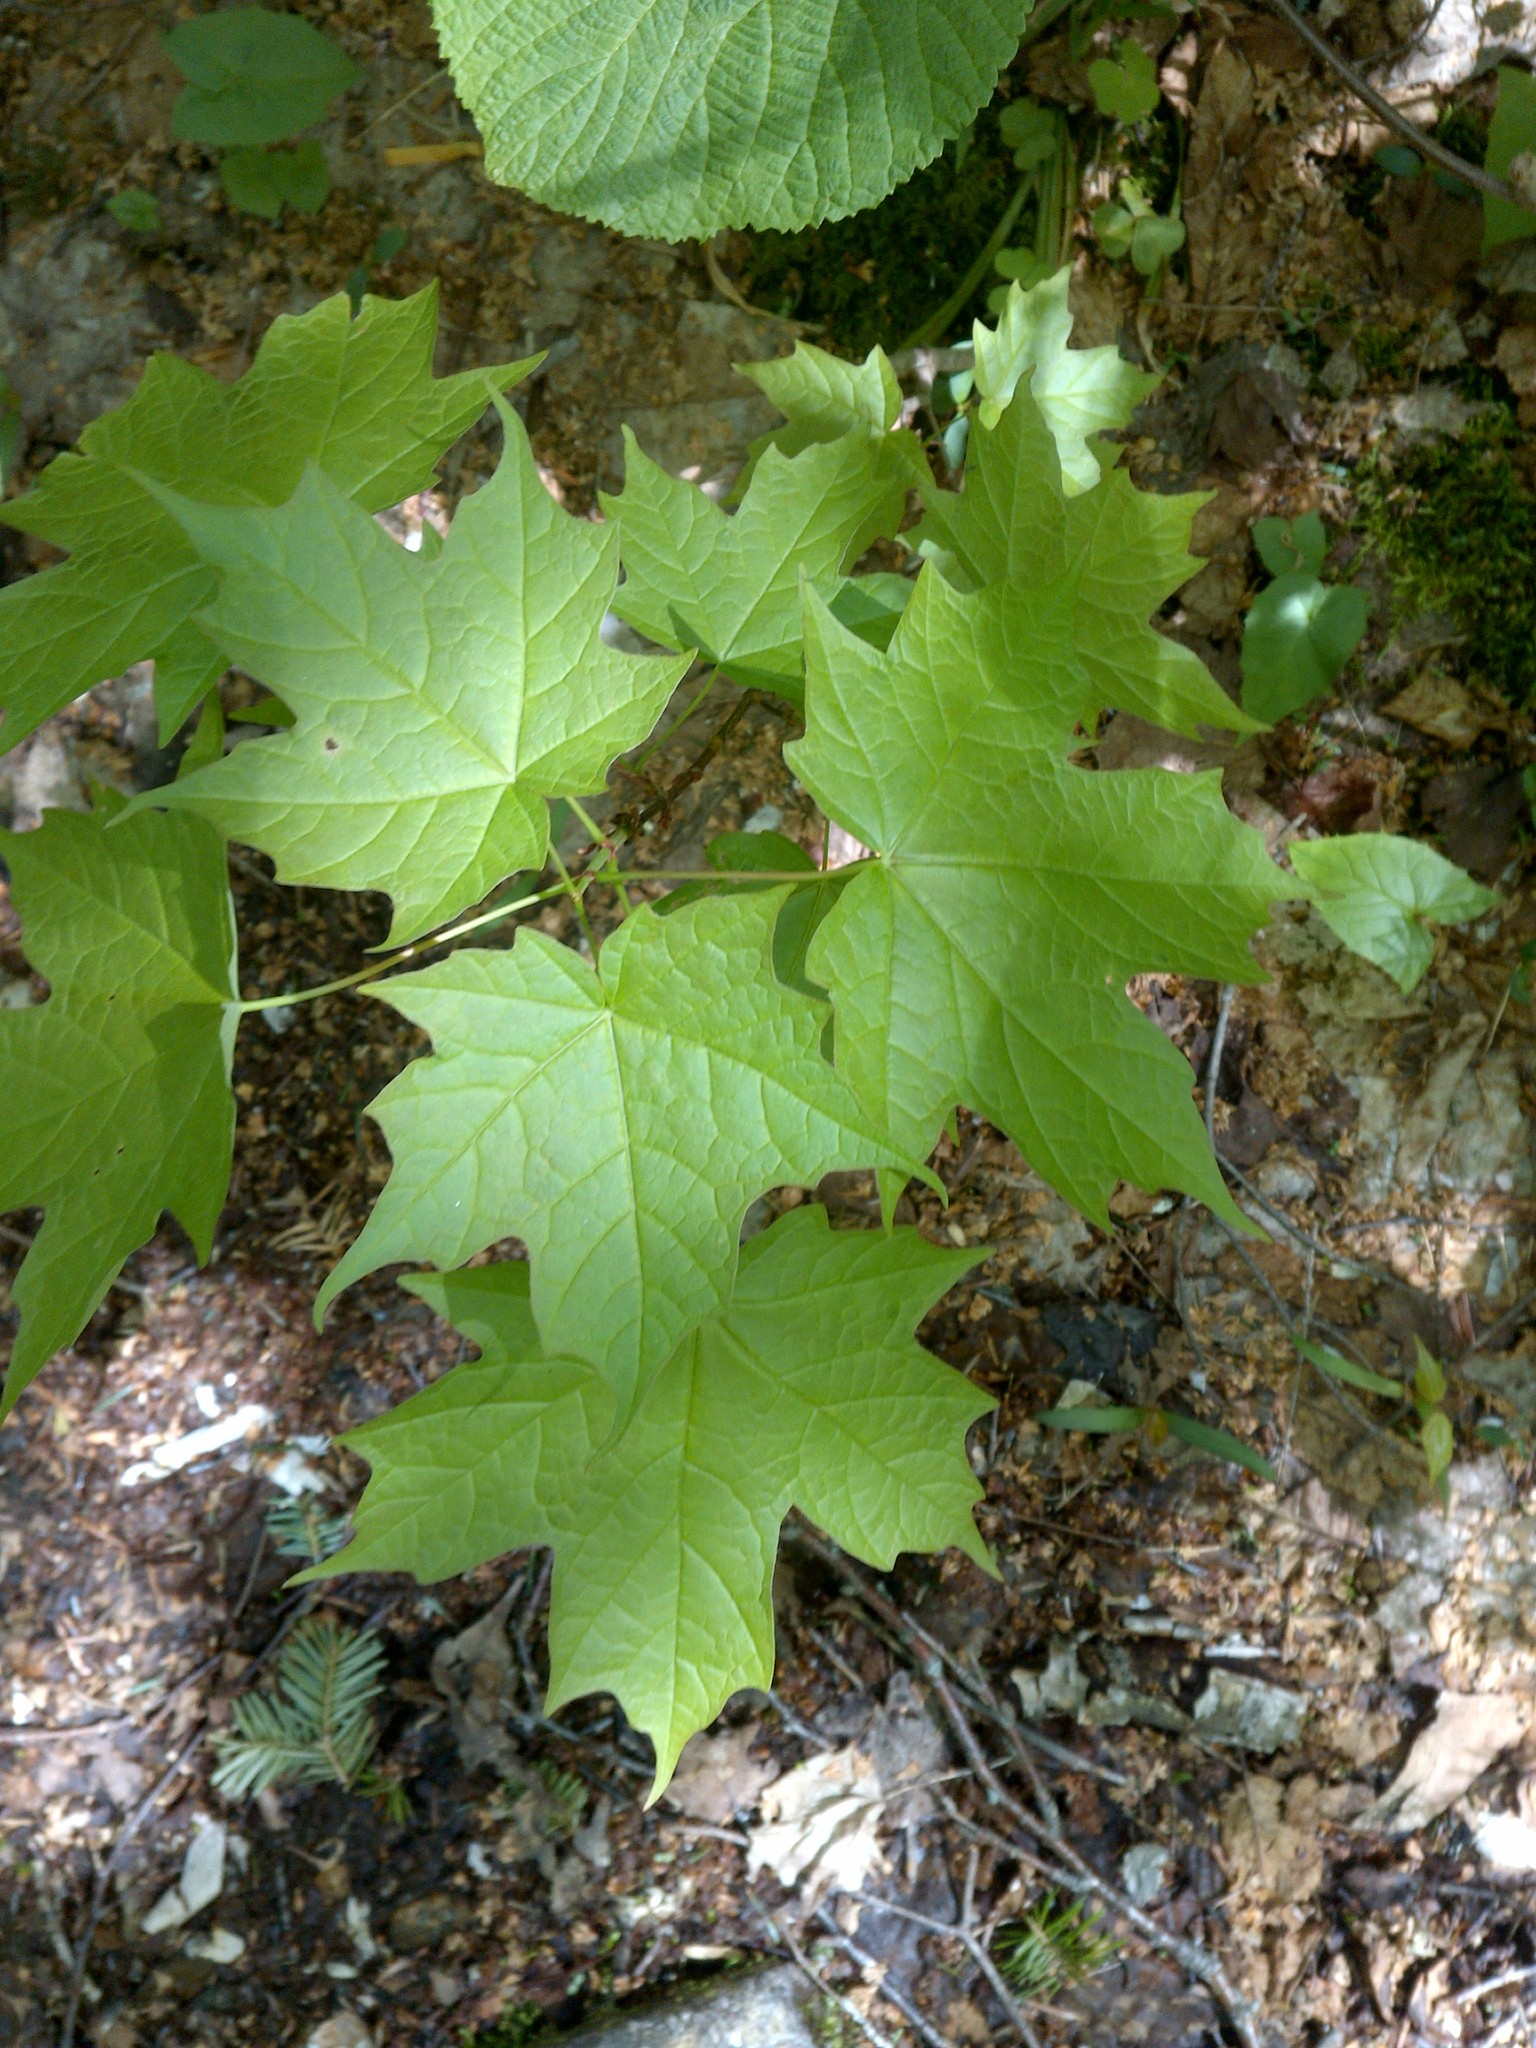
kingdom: Plantae
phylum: Tracheophyta
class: Magnoliopsida
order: Sapindales
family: Sapindaceae
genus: Acer
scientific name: Acer saccharum
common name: Sugar maple
